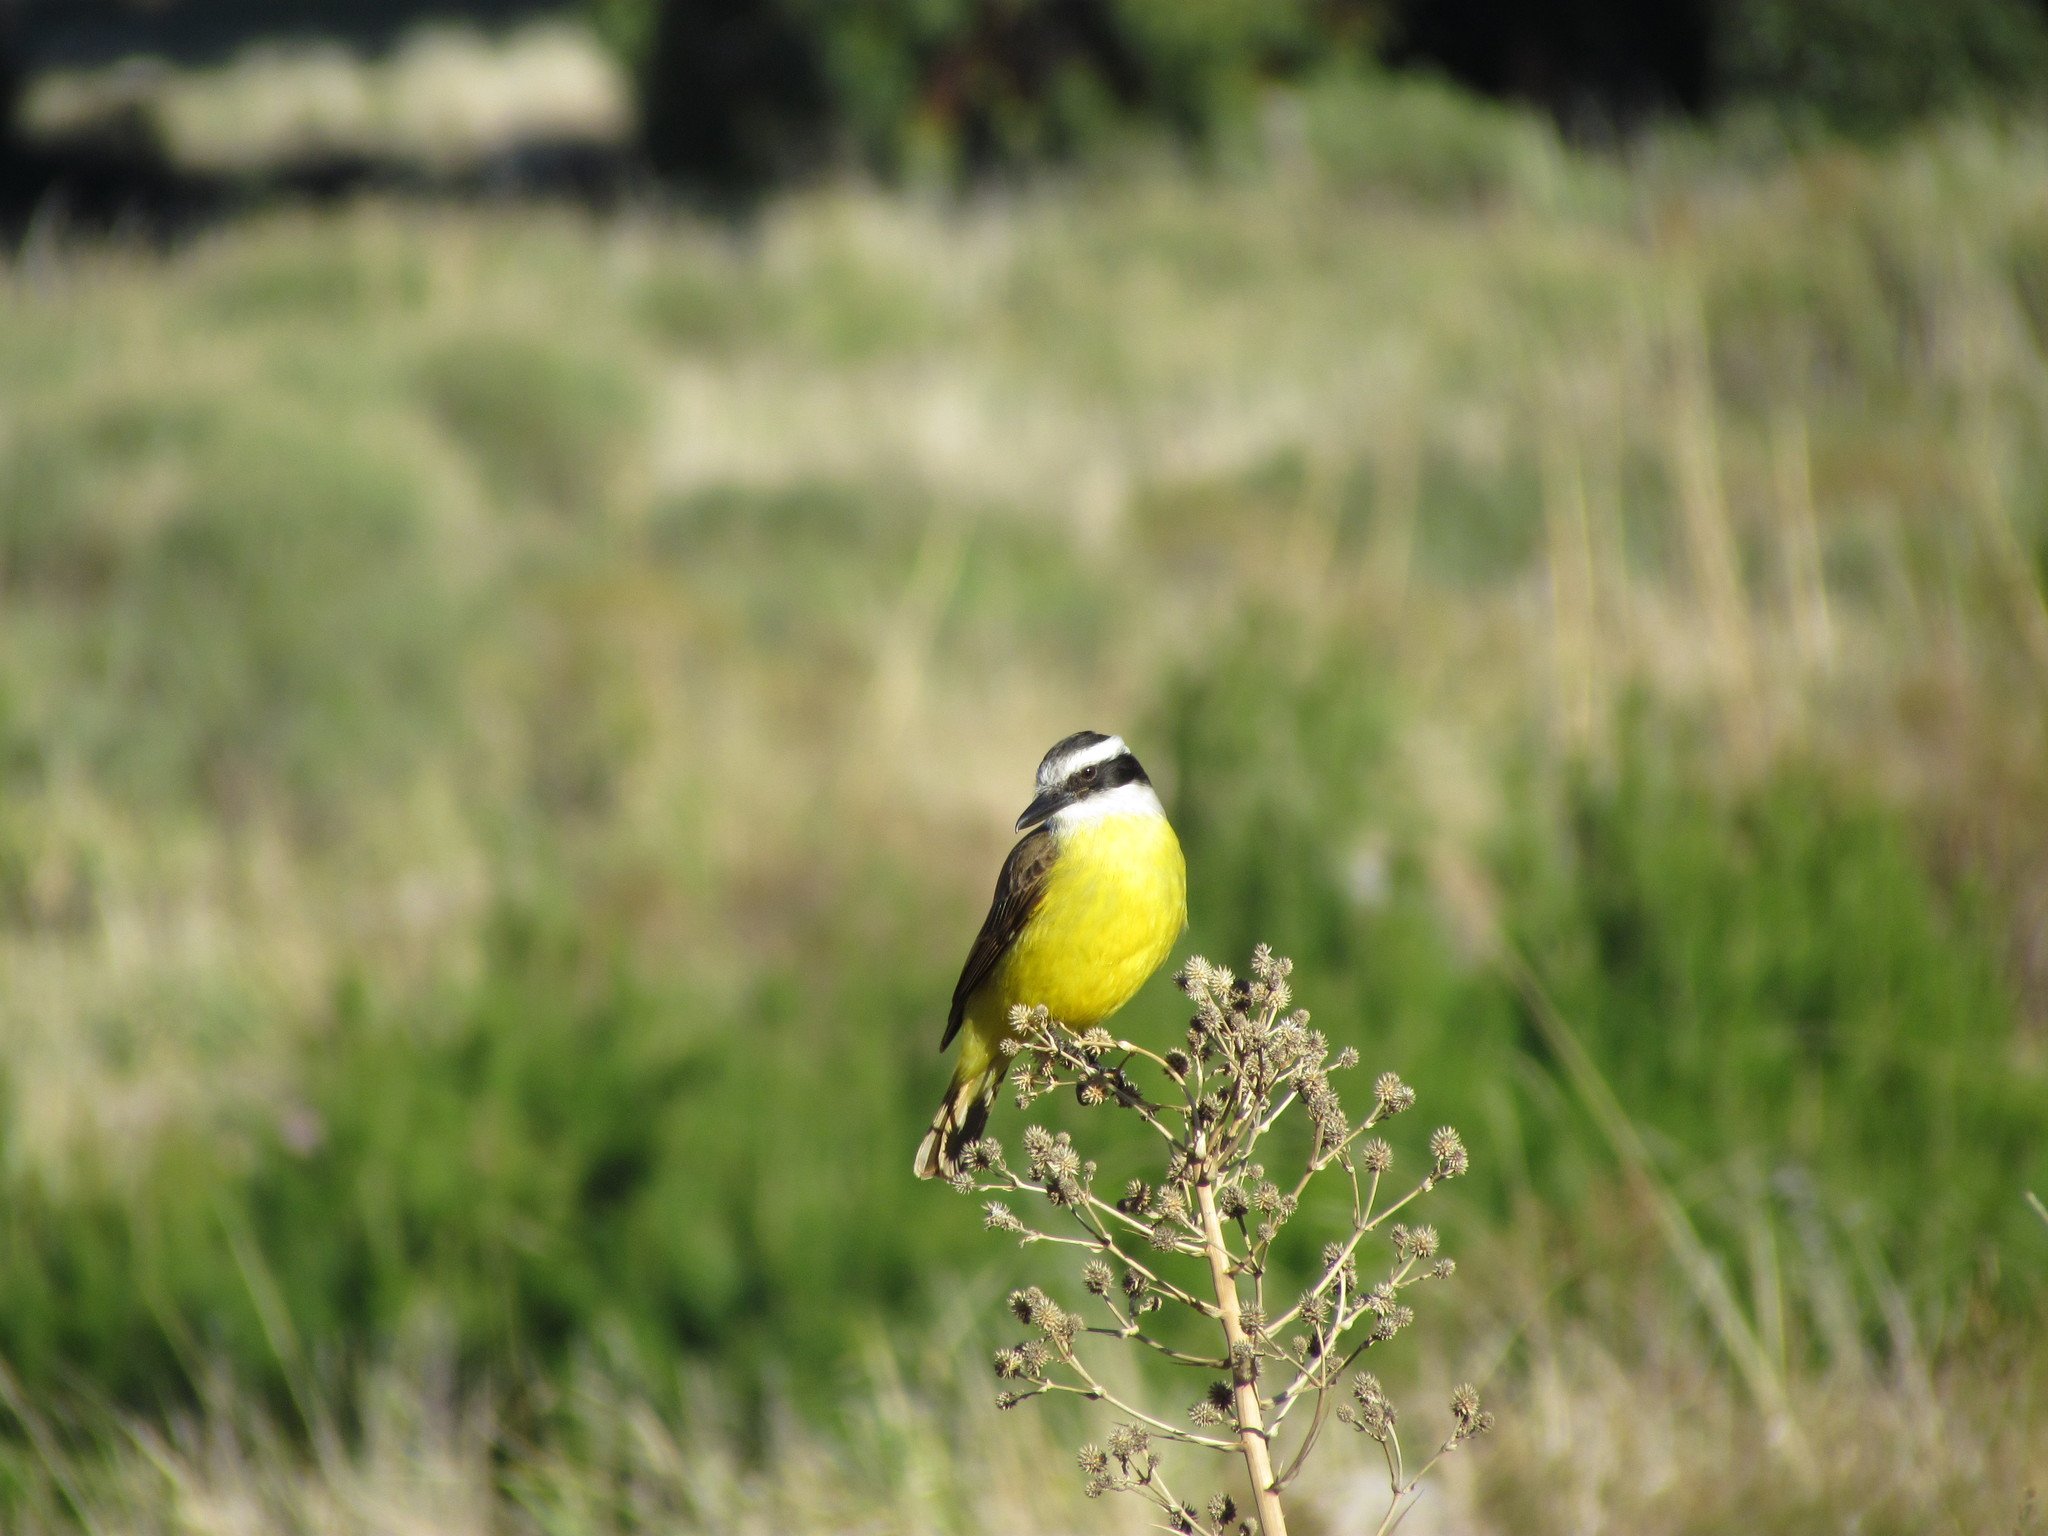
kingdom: Animalia
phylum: Chordata
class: Aves
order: Passeriformes
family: Tyrannidae
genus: Pitangus
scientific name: Pitangus sulphuratus
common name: Great kiskadee
